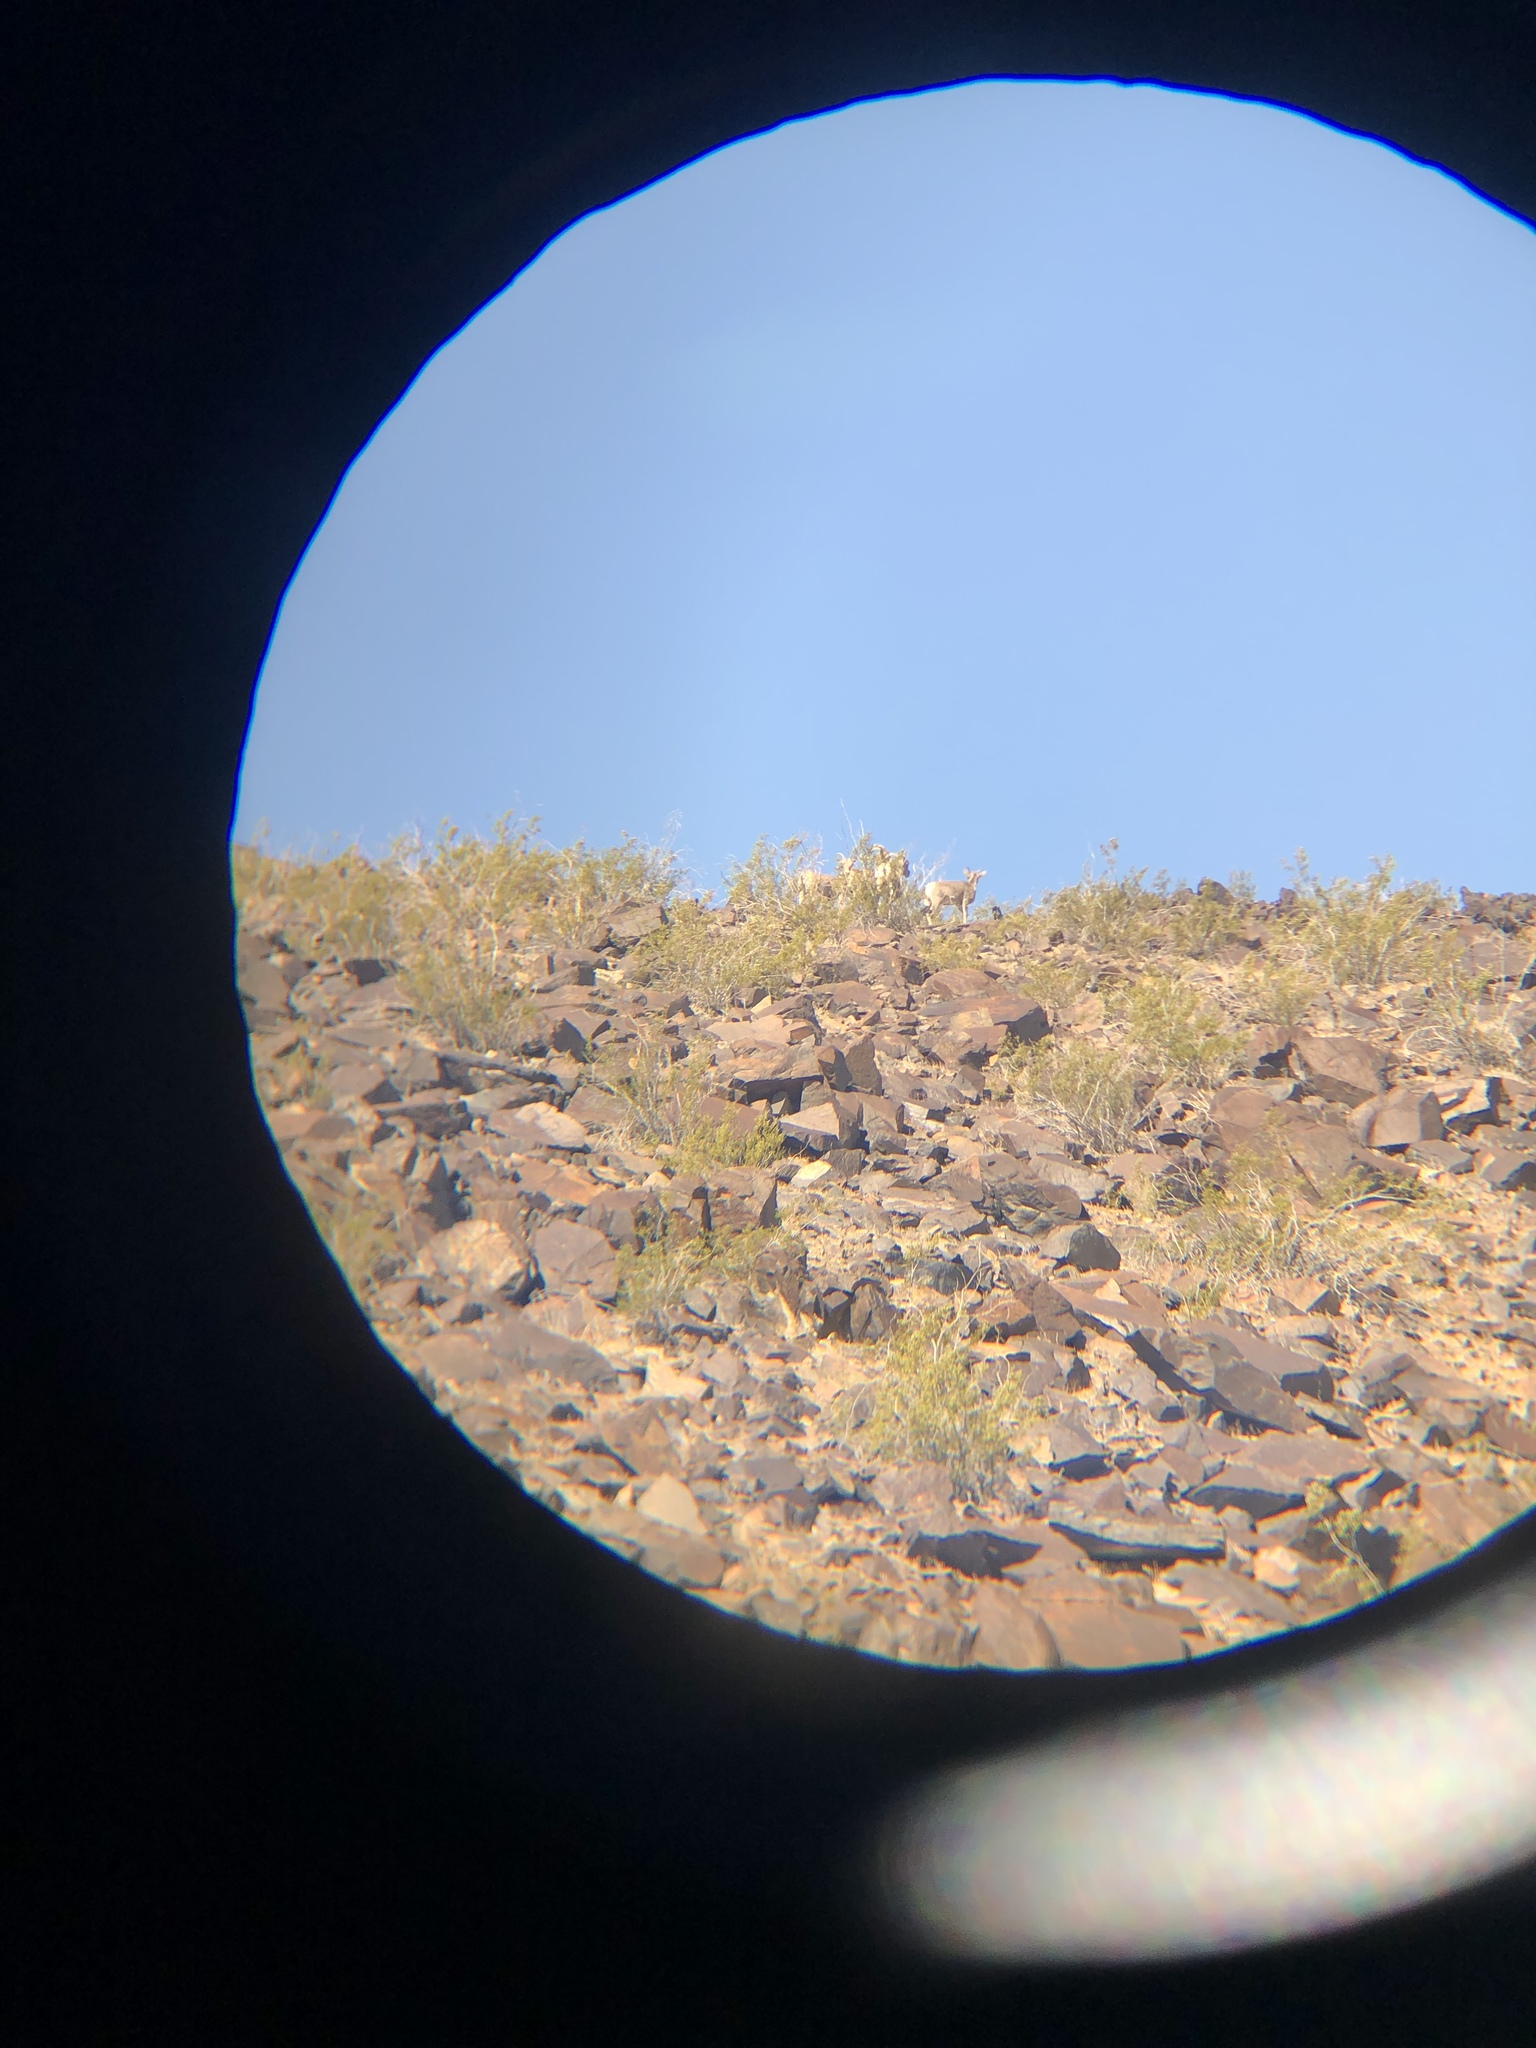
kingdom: Animalia
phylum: Chordata
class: Mammalia
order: Artiodactyla
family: Bovidae
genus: Ovis
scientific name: Ovis canadensis
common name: Bighorn sheep
